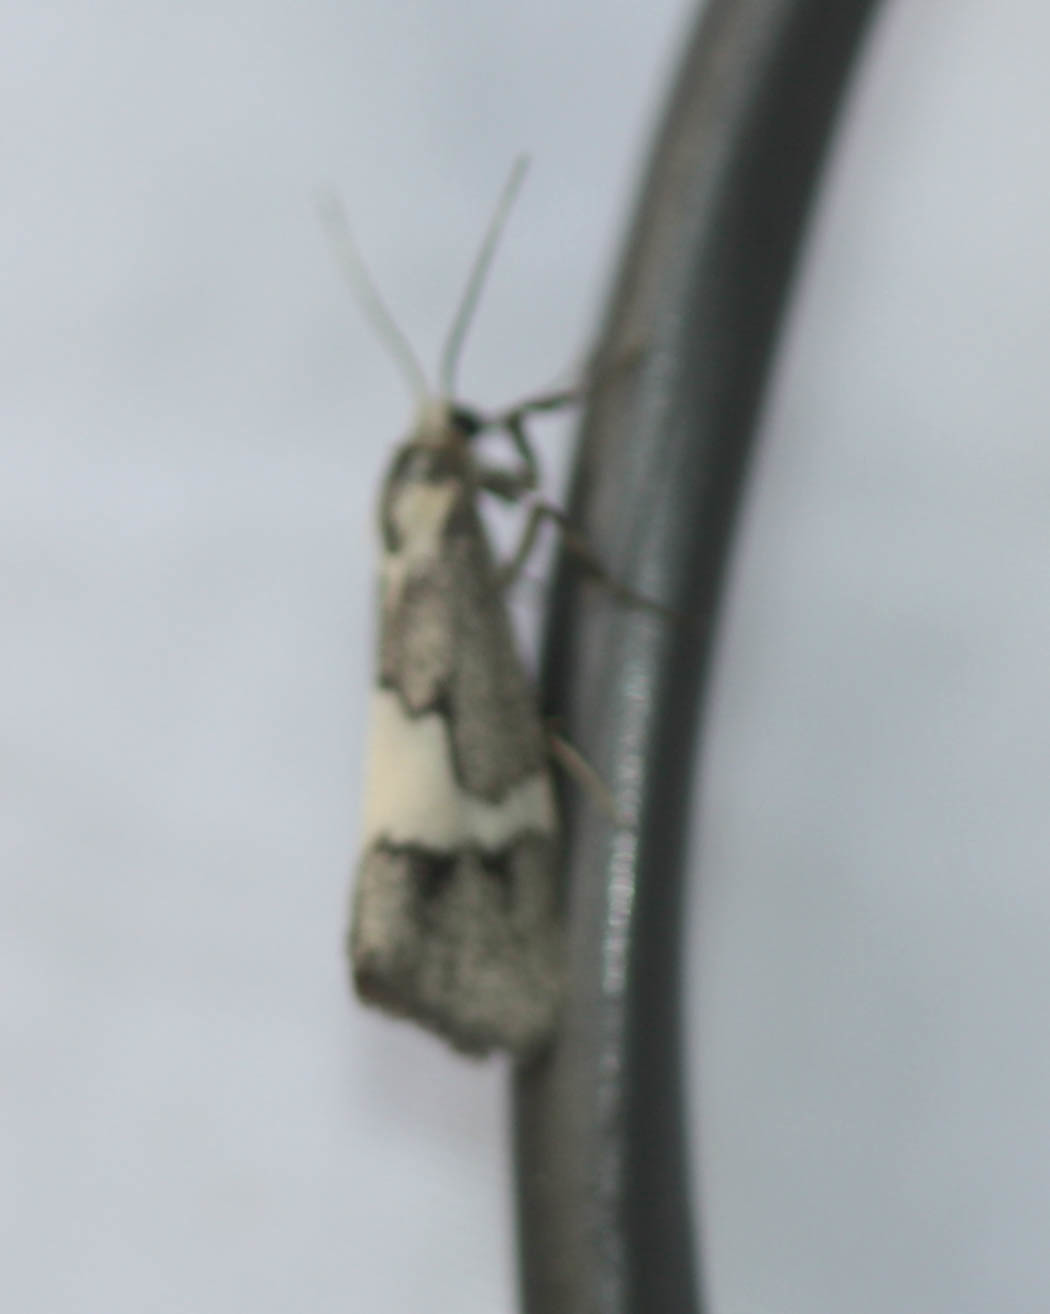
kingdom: Animalia
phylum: Arthropoda
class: Insecta
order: Lepidoptera
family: Erebidae
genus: Cisthene
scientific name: Cisthene deserta
